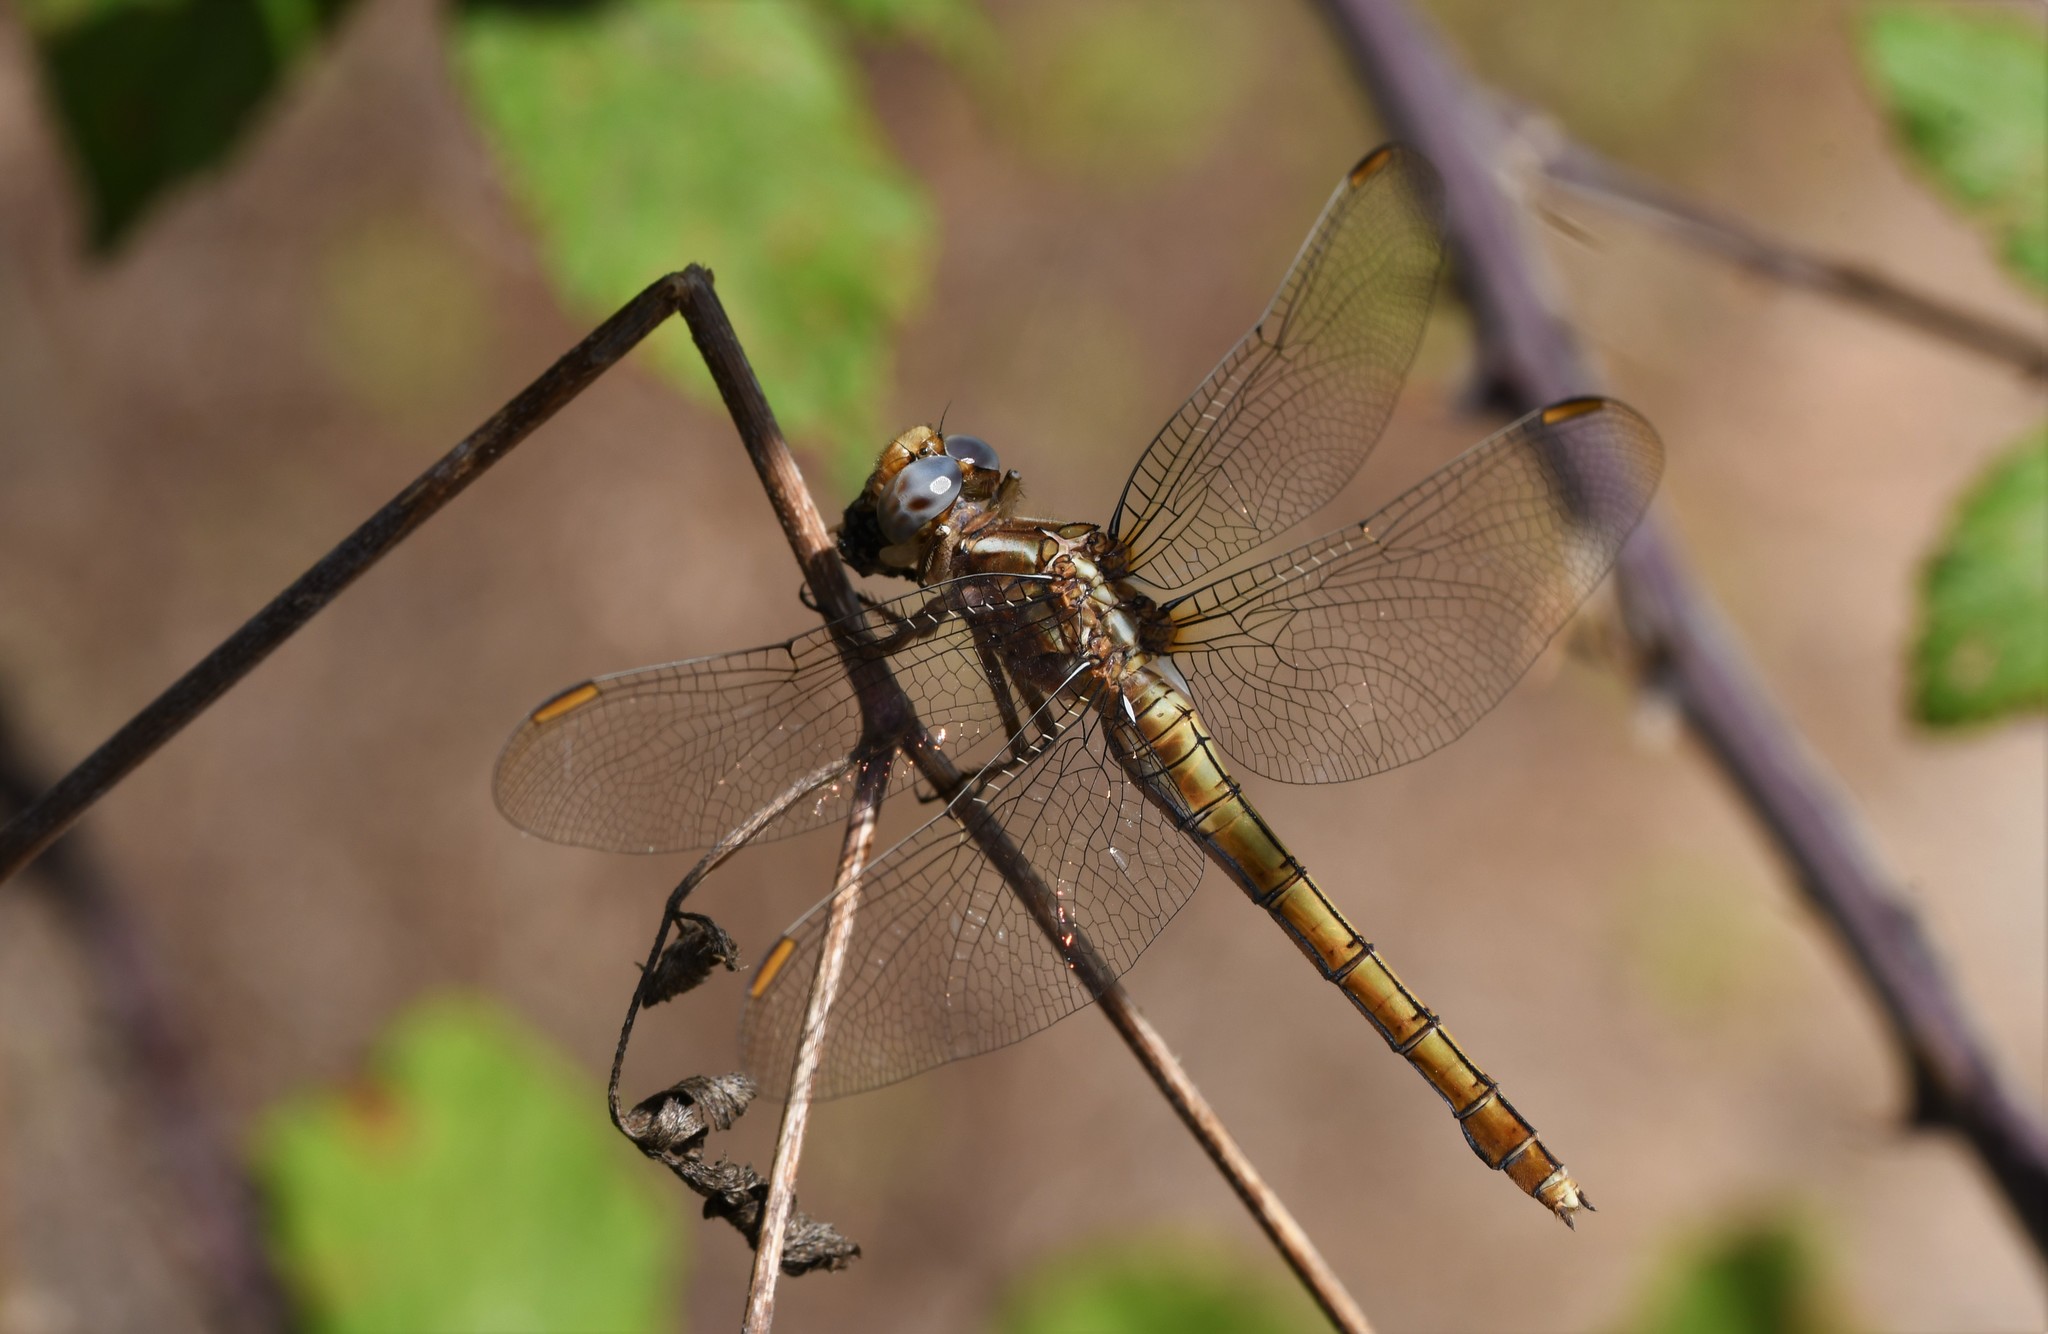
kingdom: Animalia
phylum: Arthropoda
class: Insecta
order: Odonata
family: Libellulidae
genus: Orthetrum
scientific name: Orthetrum coerulescens
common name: Keeled skimmer
